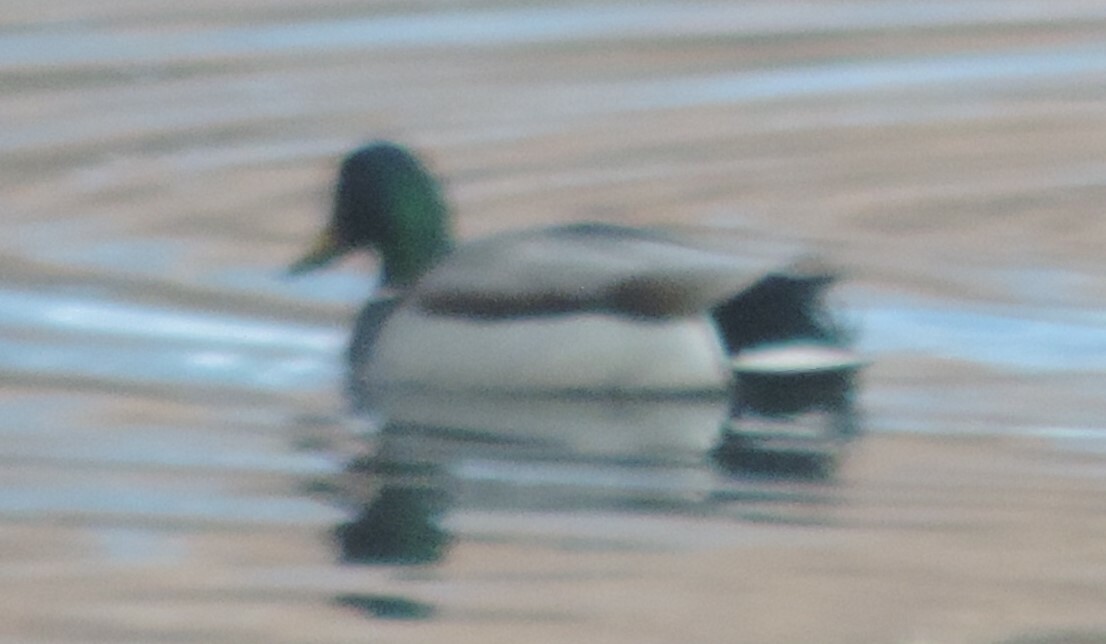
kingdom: Animalia
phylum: Chordata
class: Aves
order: Anseriformes
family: Anatidae
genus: Anas
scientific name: Anas platyrhynchos
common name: Mallard
